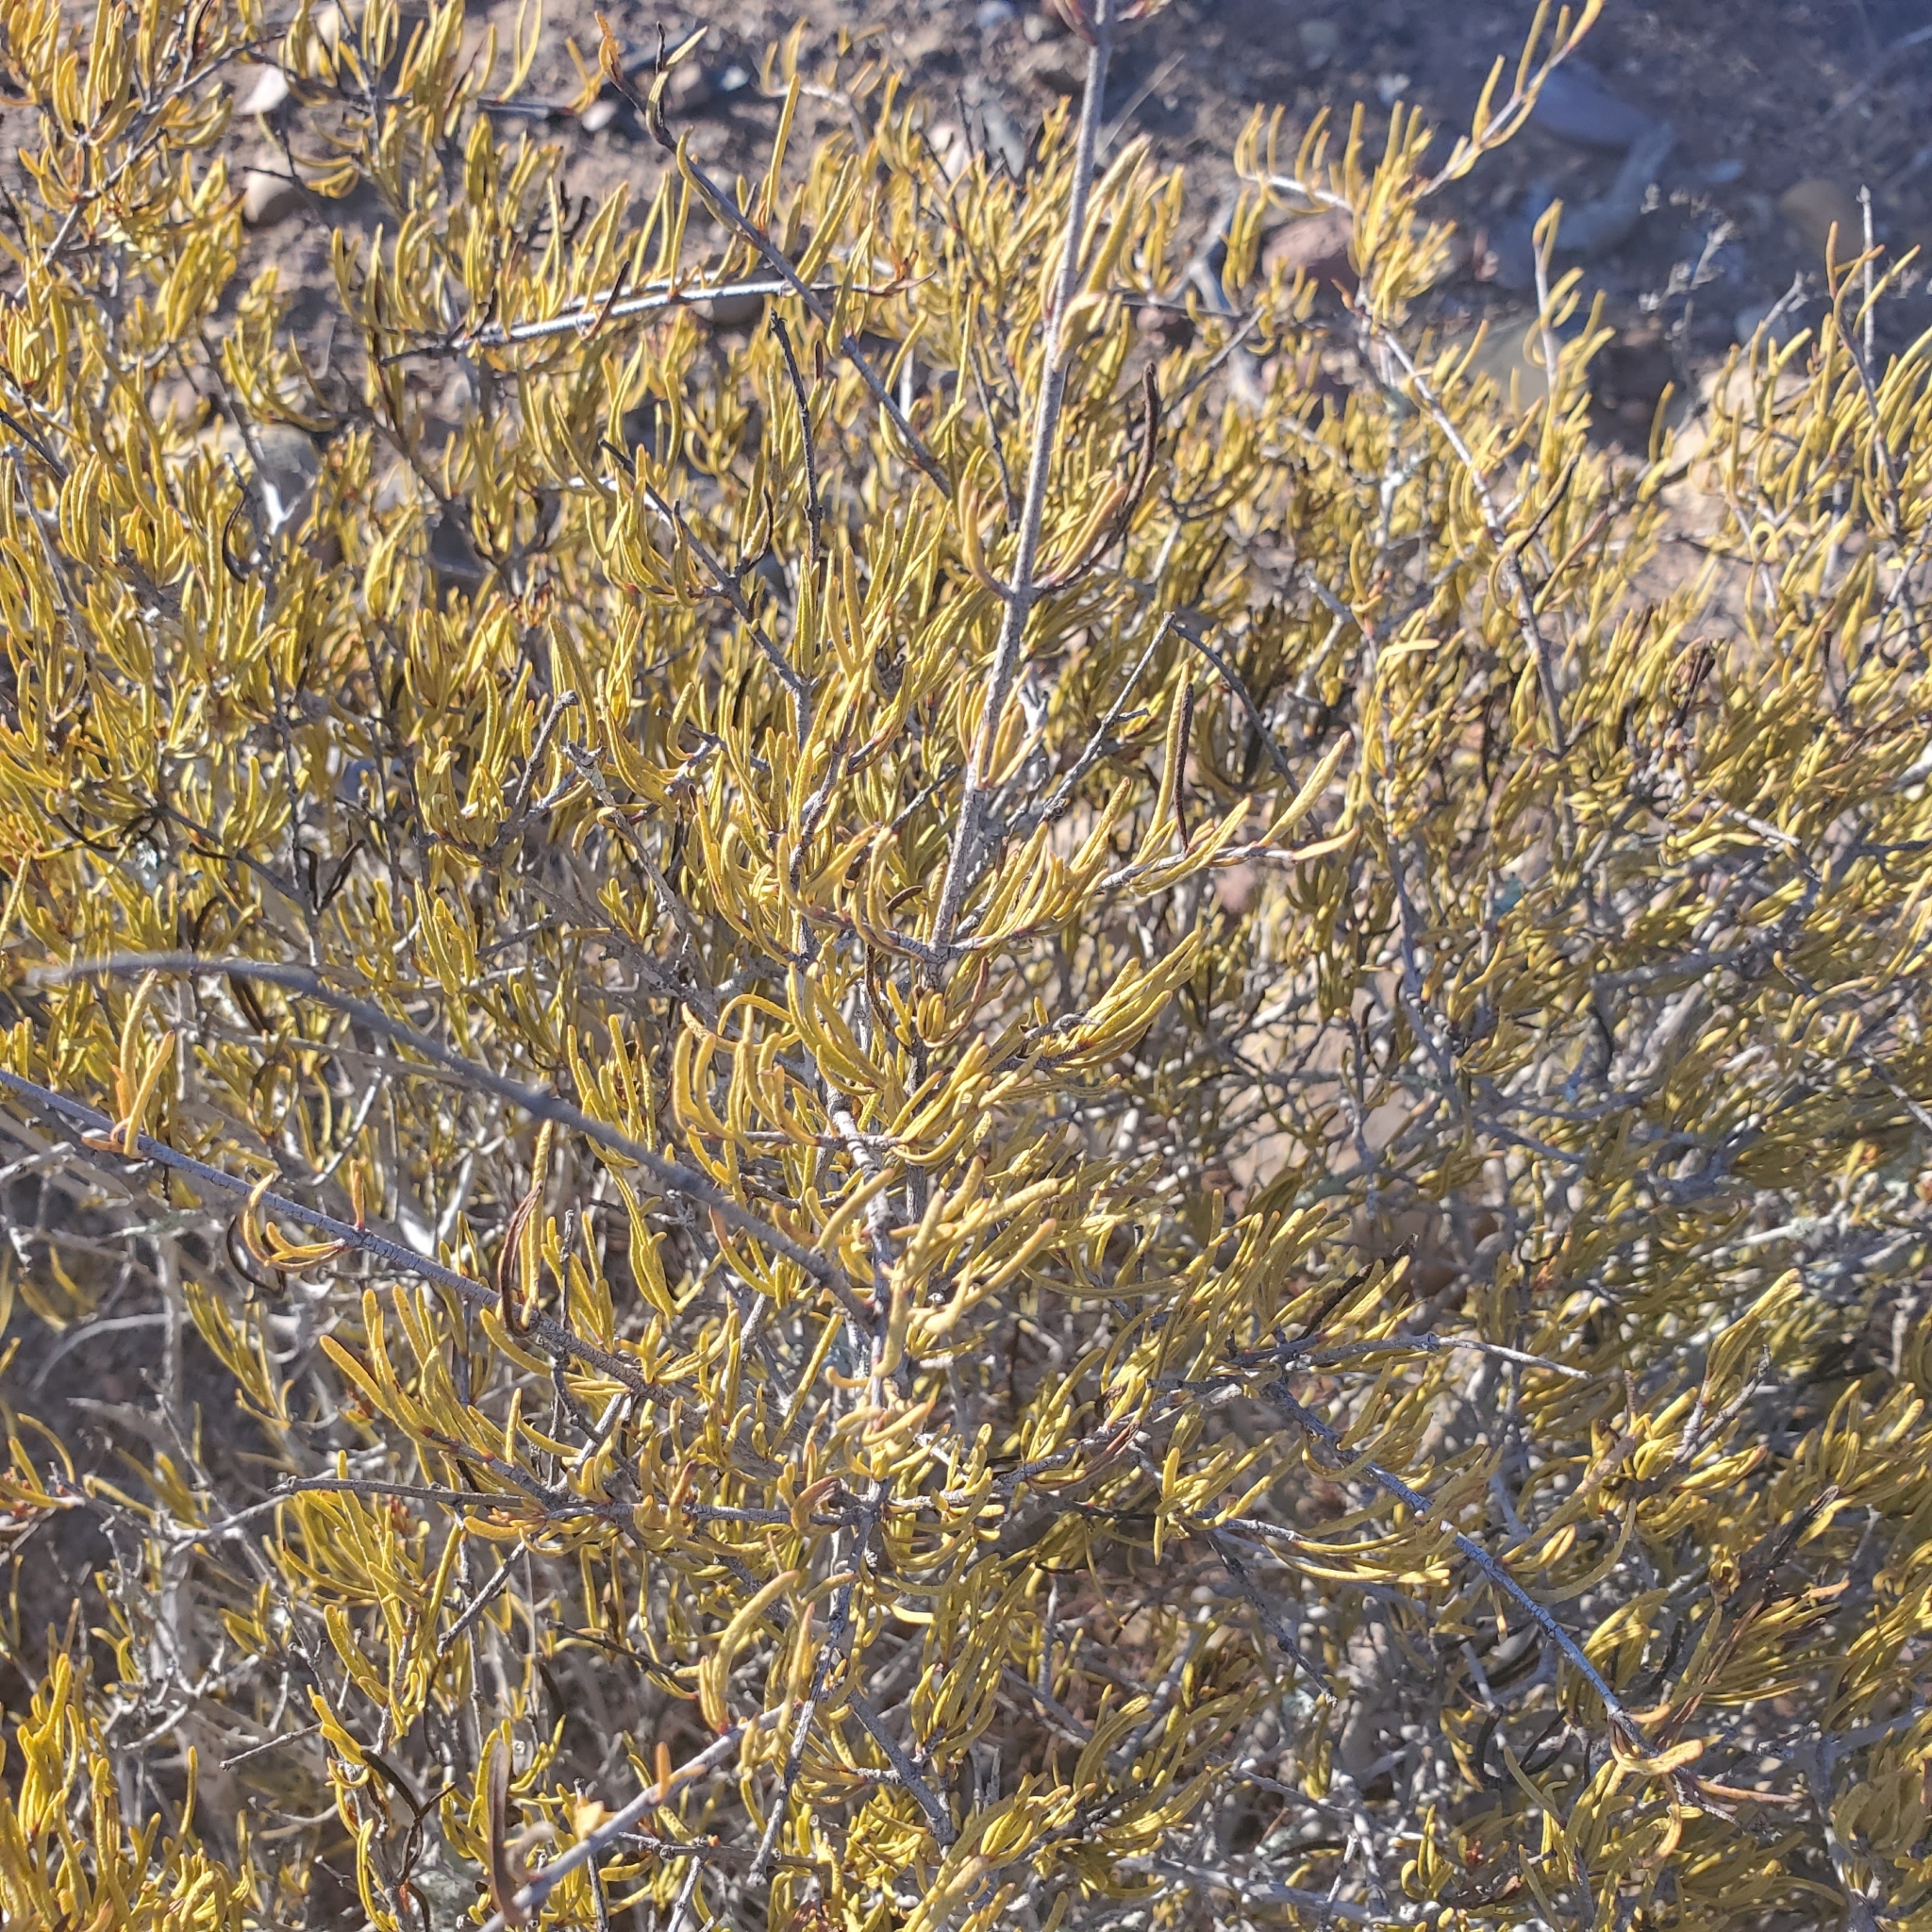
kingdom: Plantae
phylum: Tracheophyta
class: Magnoliopsida
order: Sapindales
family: Rutaceae
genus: Cneoridium
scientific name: Cneoridium dumosum
